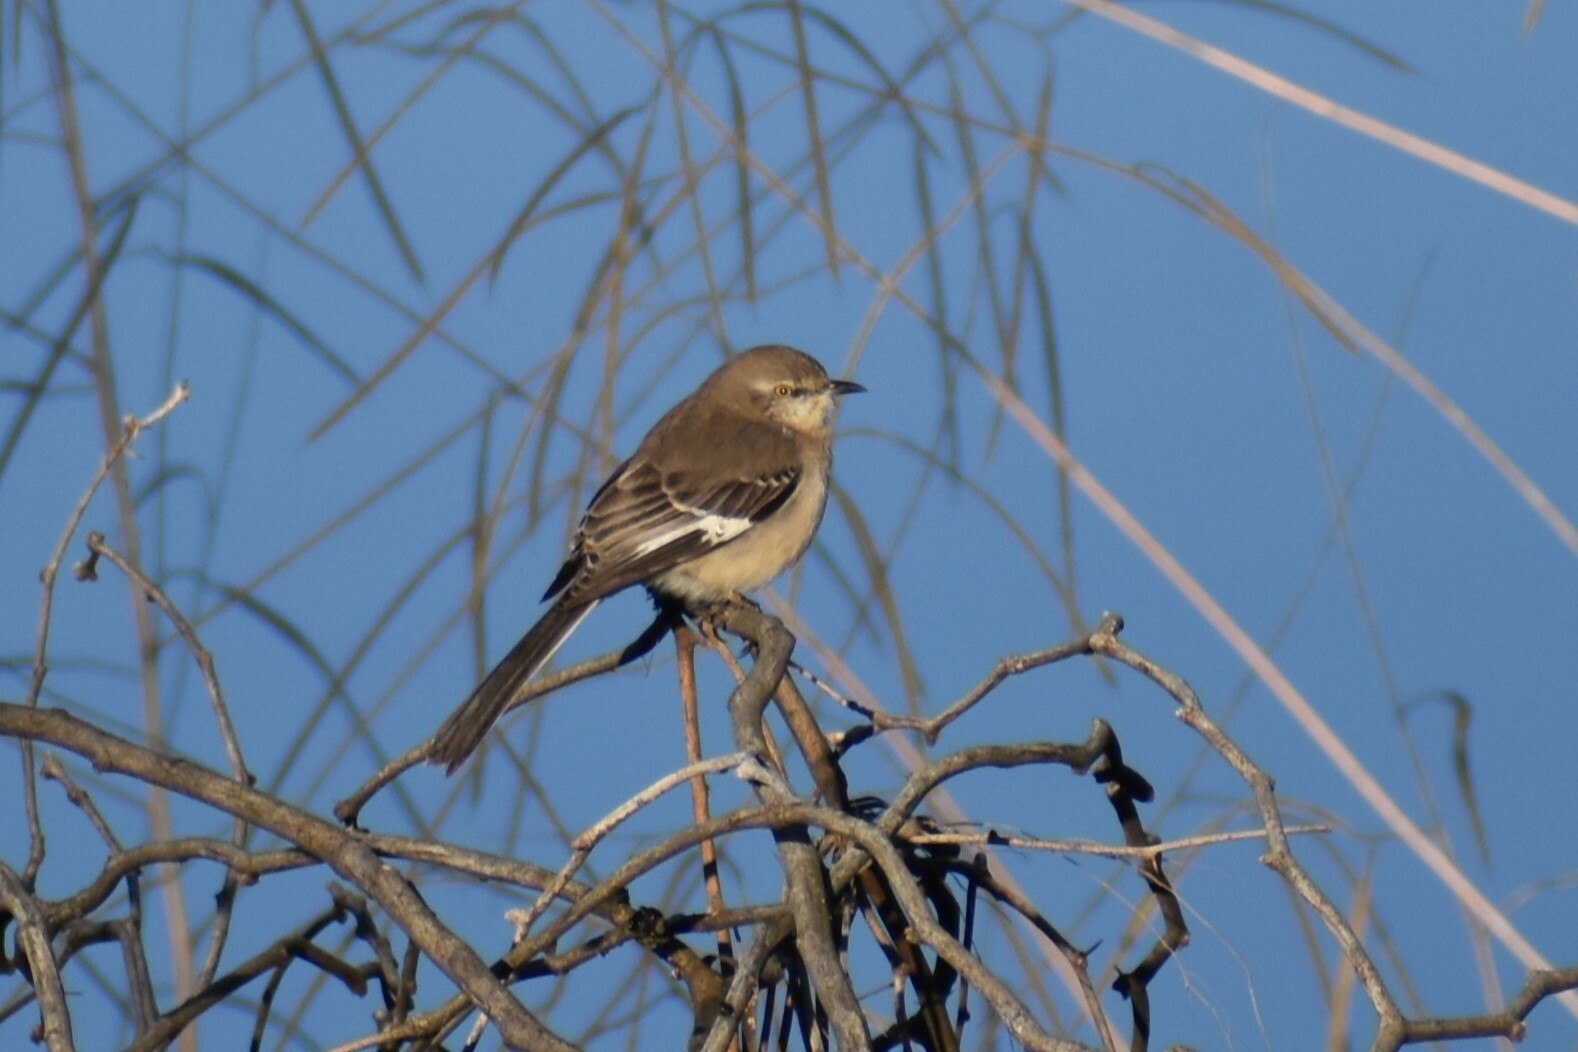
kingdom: Animalia
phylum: Chordata
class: Aves
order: Passeriformes
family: Mimidae
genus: Mimus
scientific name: Mimus polyglottos
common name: Northern mockingbird
